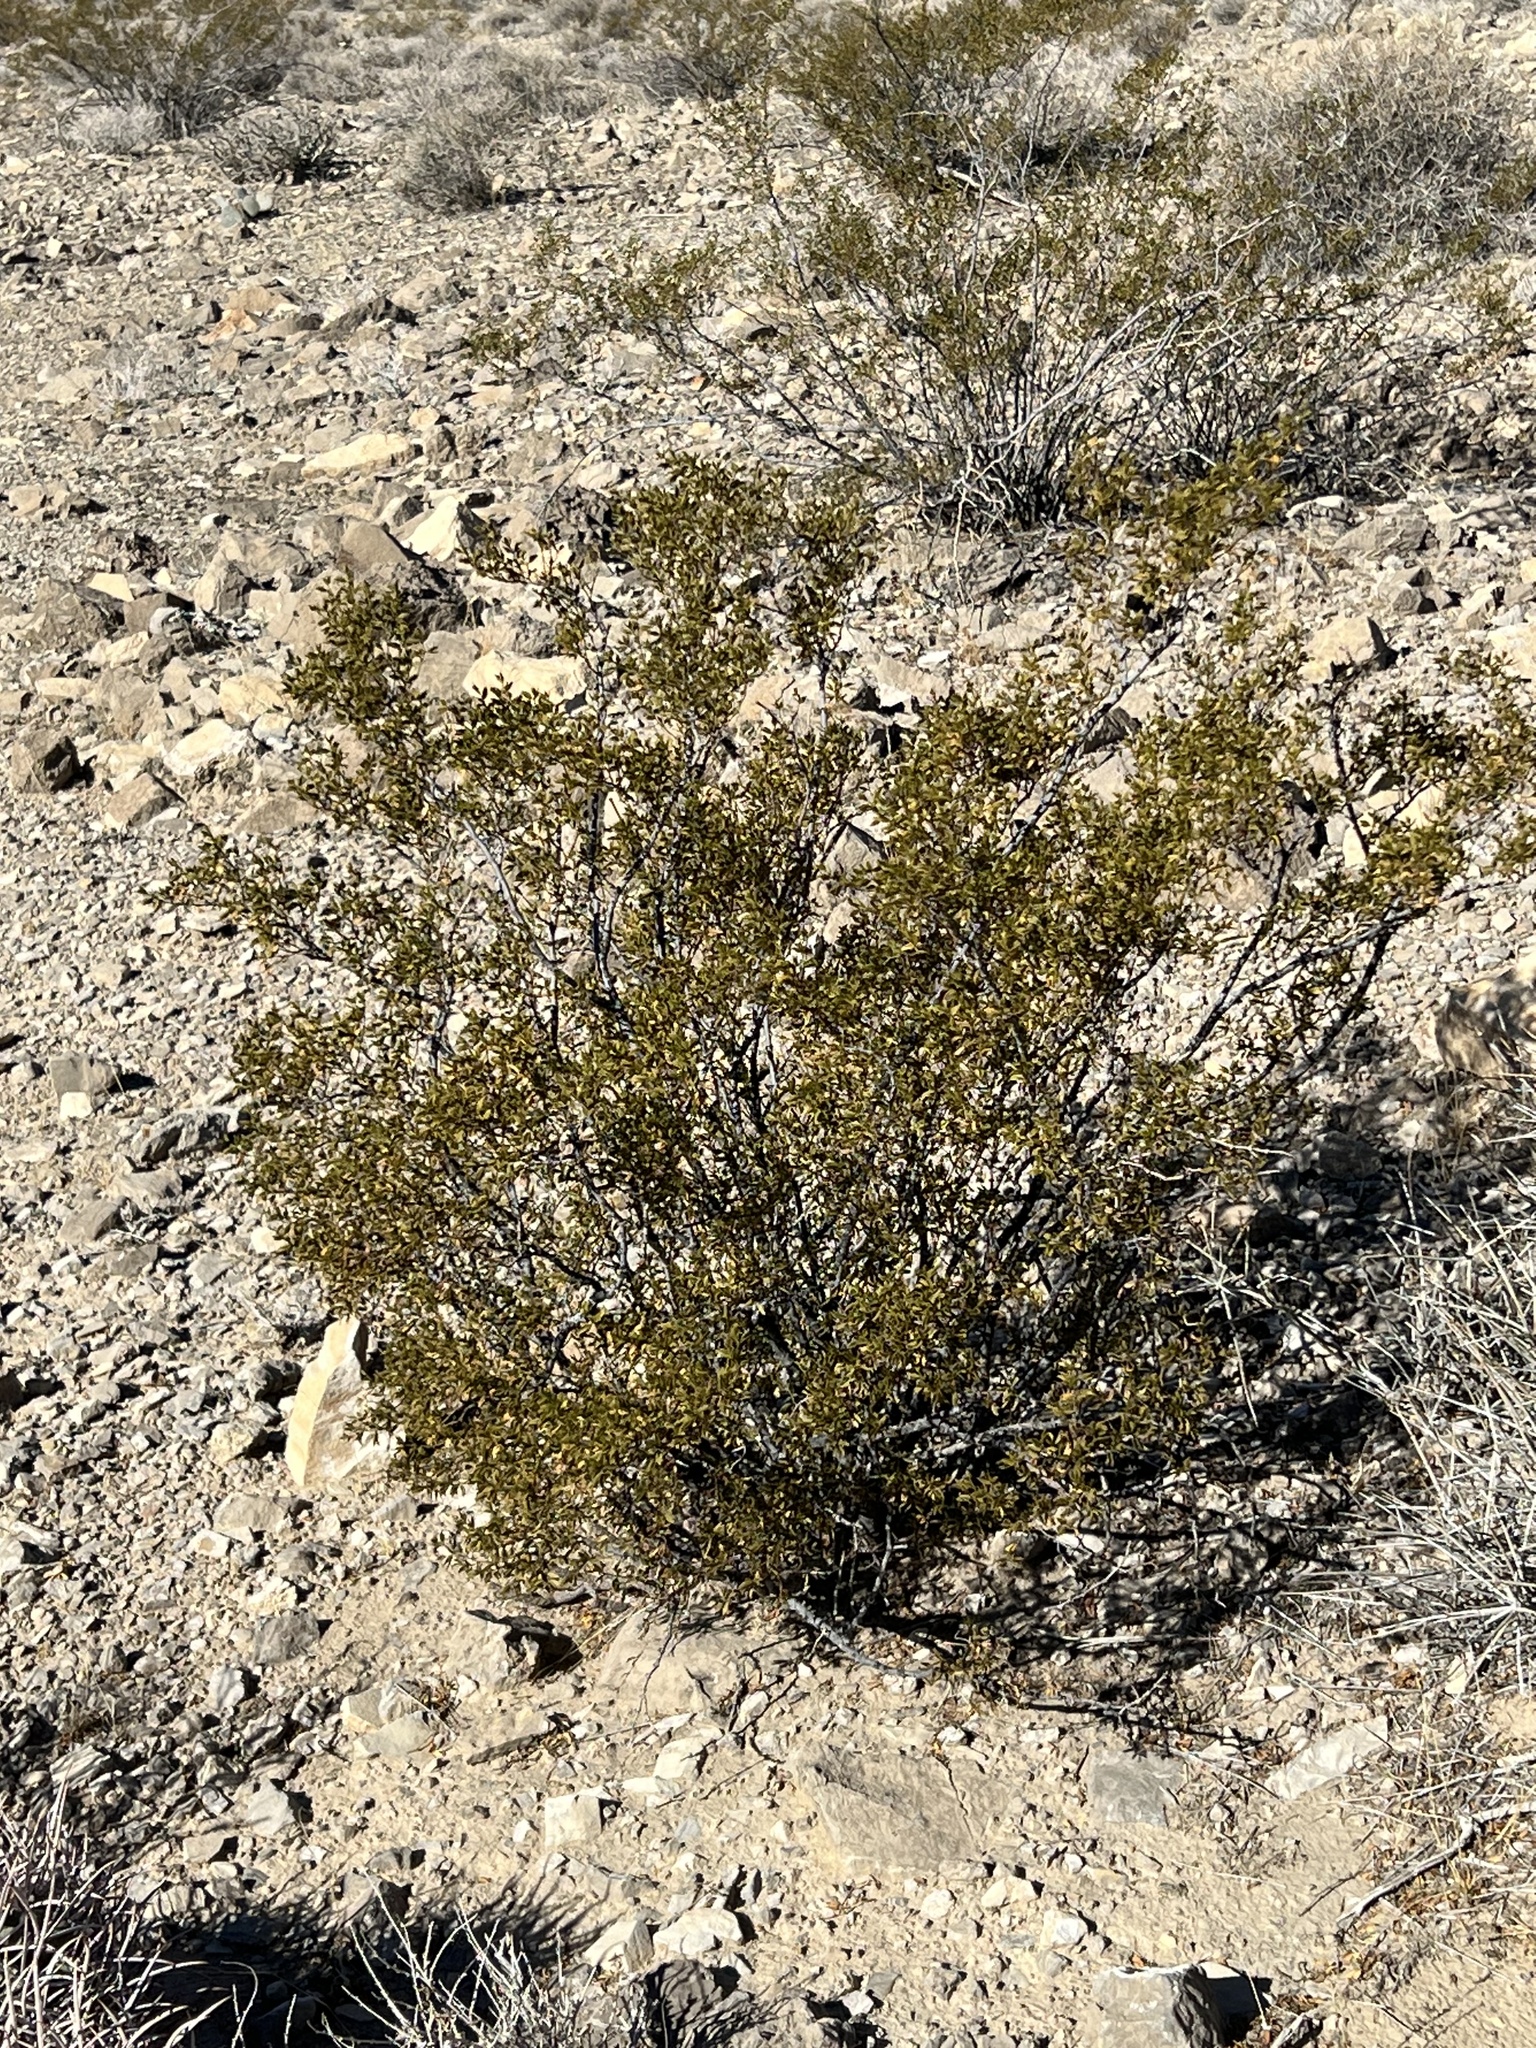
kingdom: Plantae
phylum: Tracheophyta
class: Magnoliopsida
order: Zygophyllales
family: Zygophyllaceae
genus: Larrea
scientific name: Larrea tridentata
